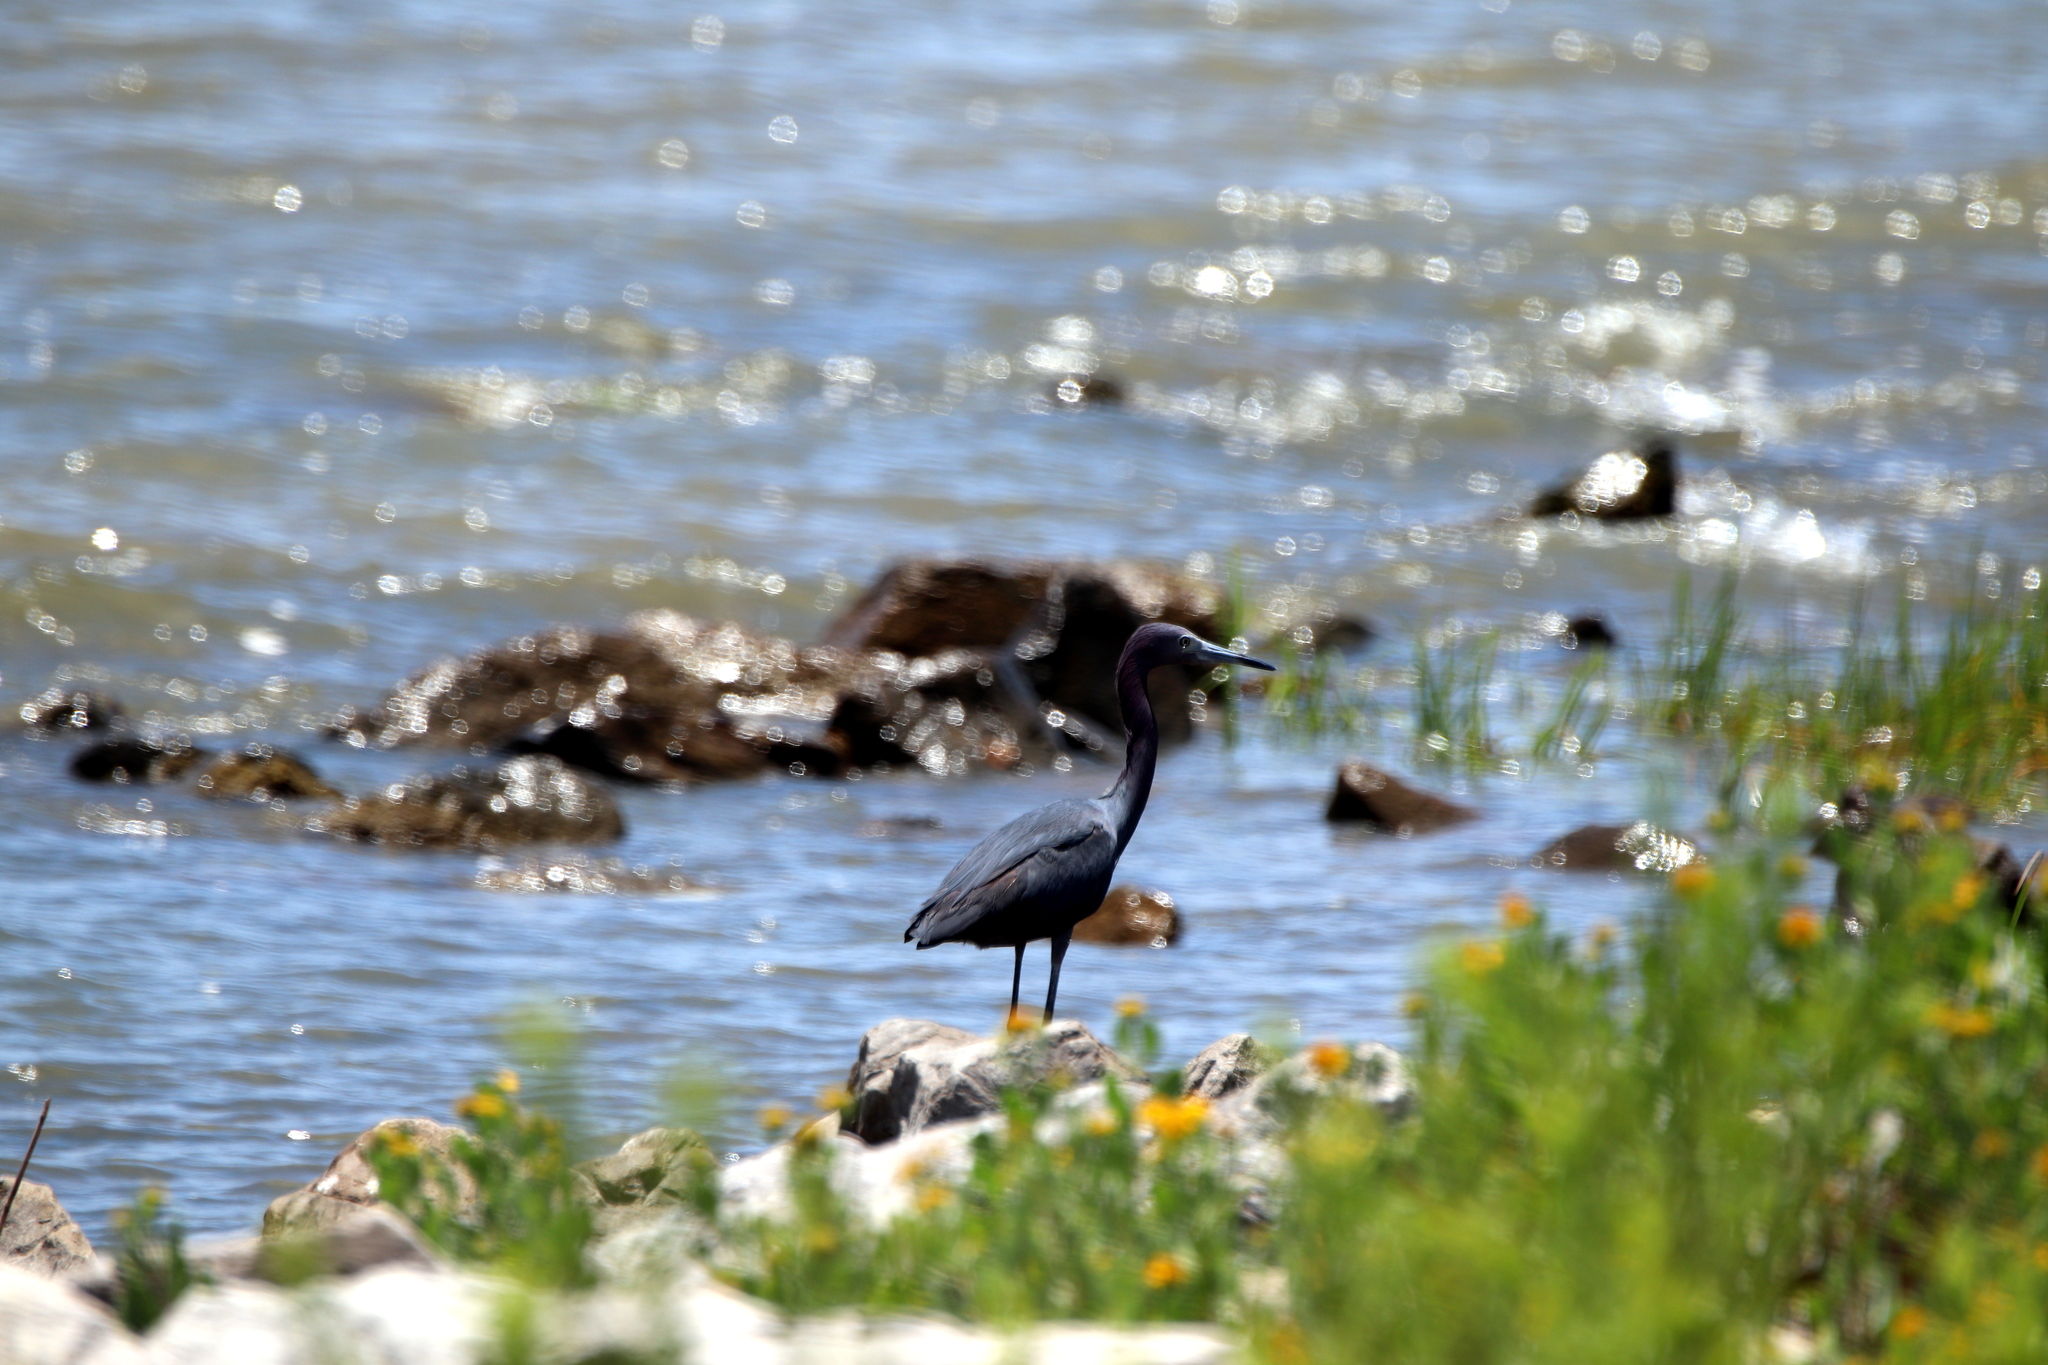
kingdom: Animalia
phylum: Chordata
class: Aves
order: Pelecaniformes
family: Ardeidae
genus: Egretta
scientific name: Egretta caerulea
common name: Little blue heron
